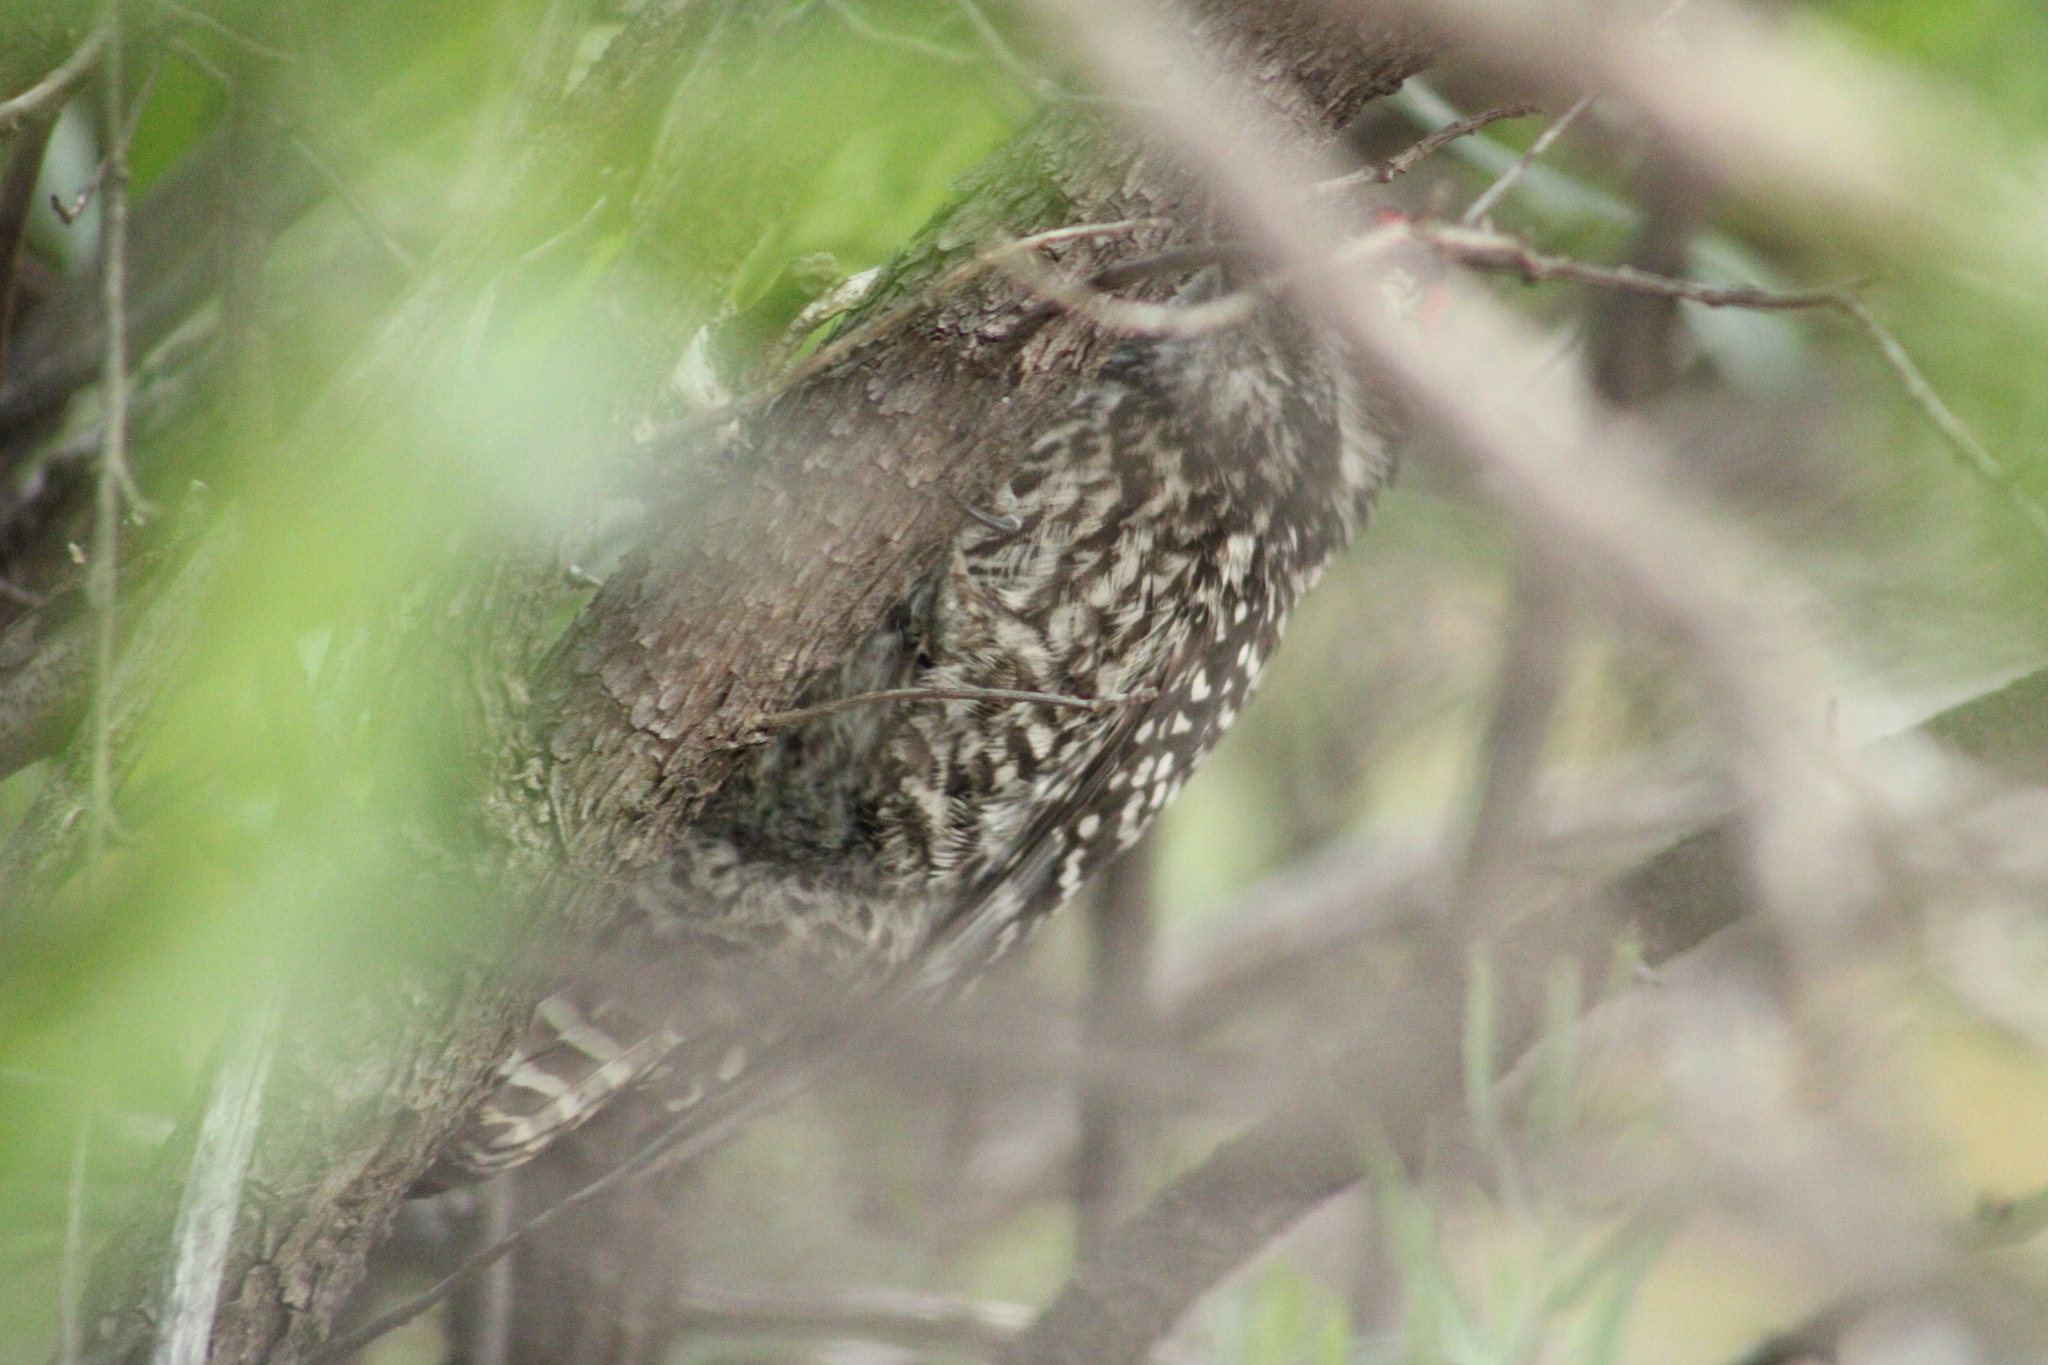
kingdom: Animalia
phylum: Chordata
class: Aves
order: Piciformes
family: Picidae
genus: Veniliornis
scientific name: Veniliornis lignarius
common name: Striped woodpecker
